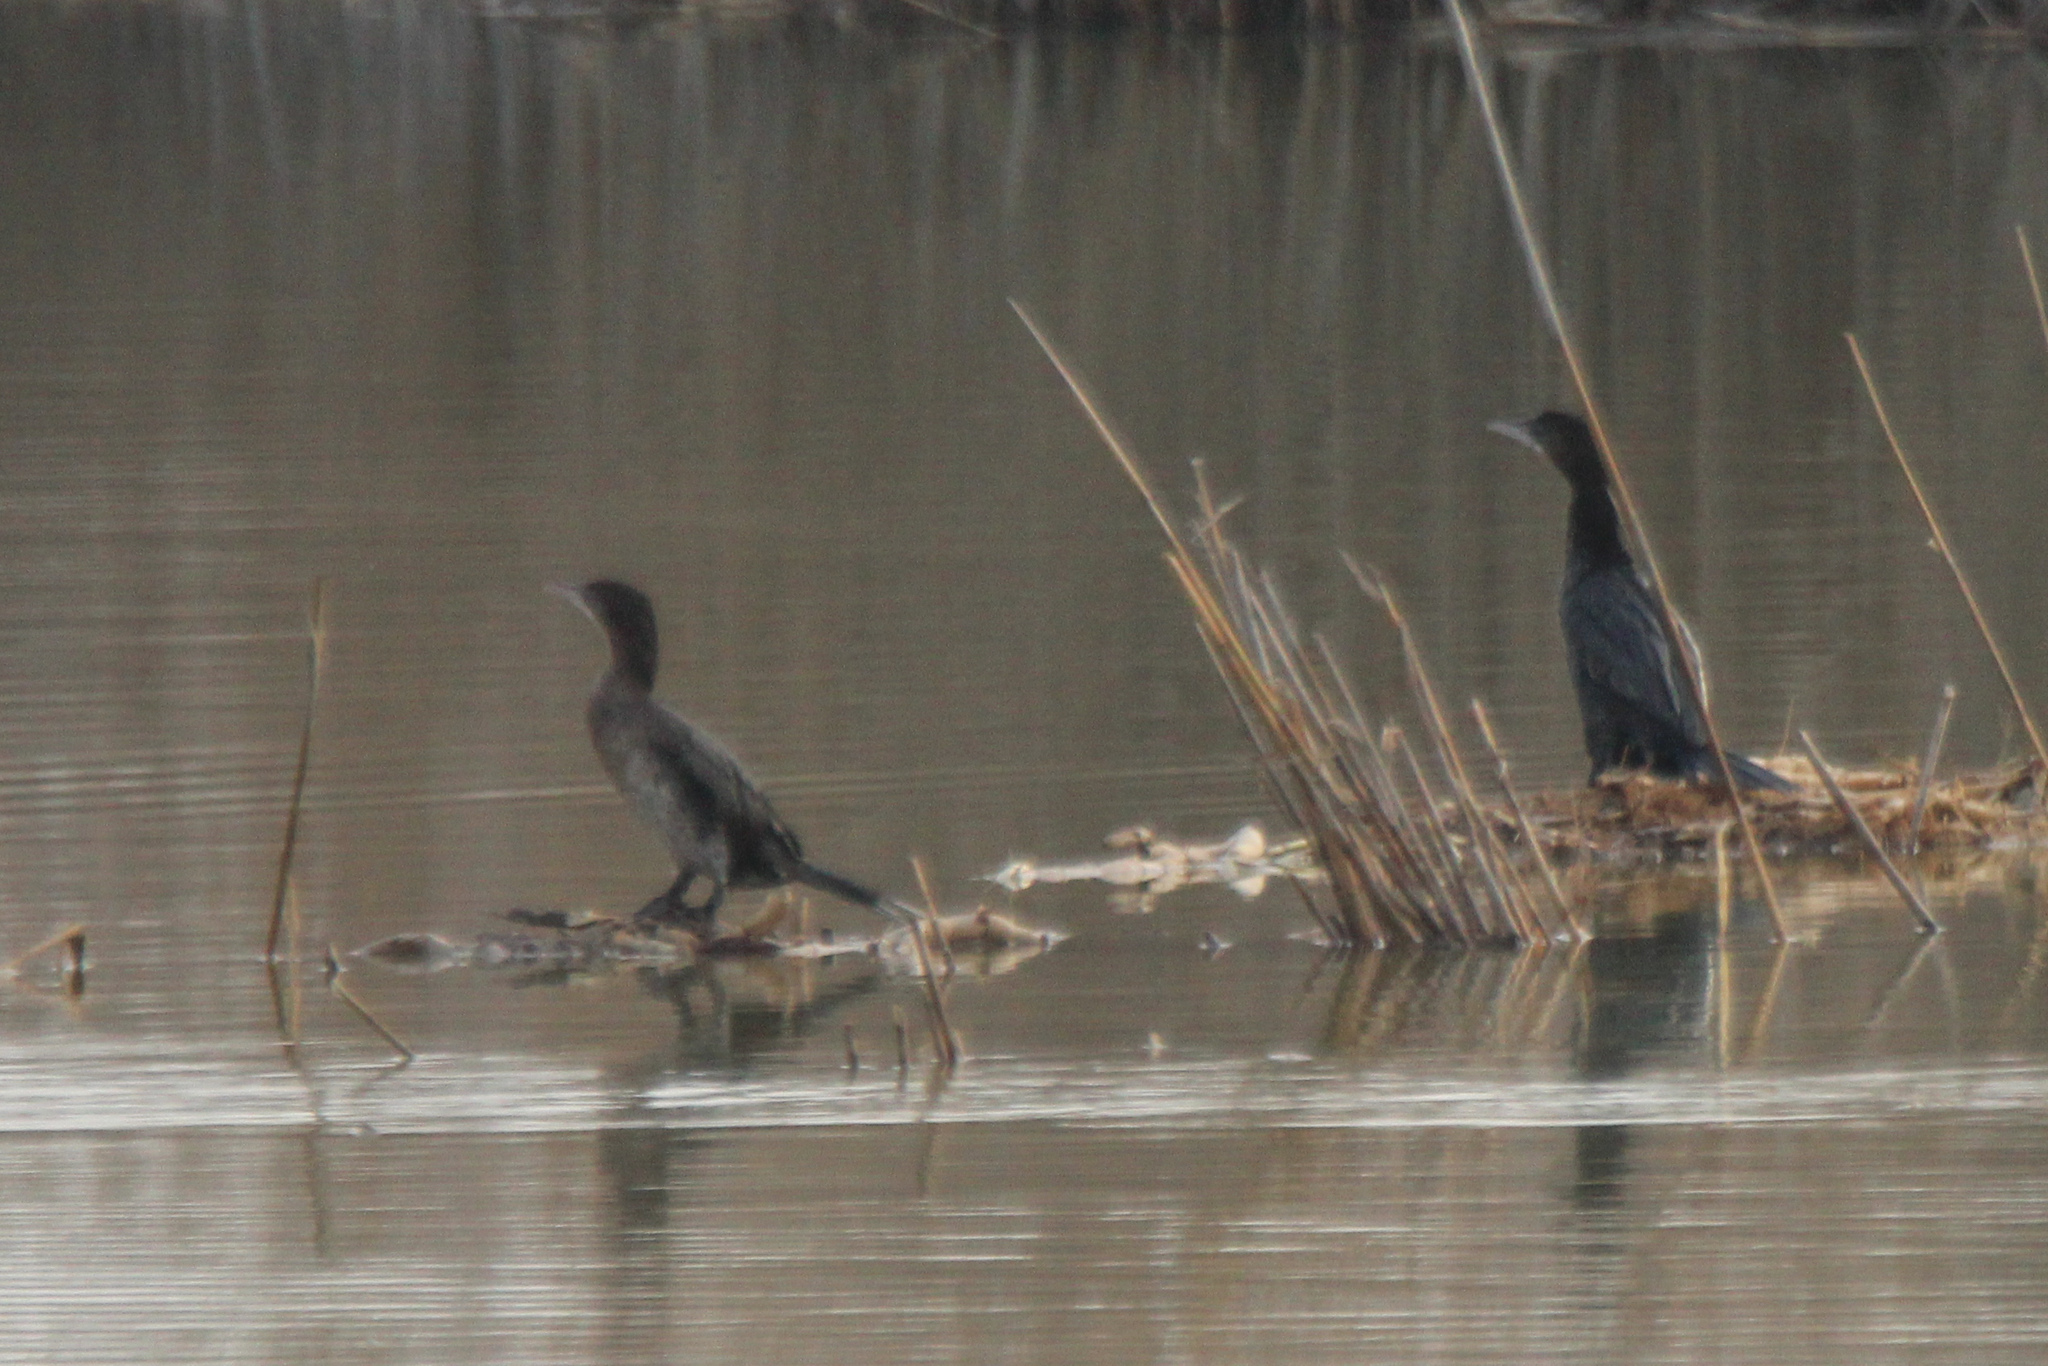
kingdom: Animalia
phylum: Chordata
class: Aves
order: Suliformes
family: Phalacrocoracidae
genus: Microcarbo
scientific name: Microcarbo pygmaeus
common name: Pygmy cormorant
